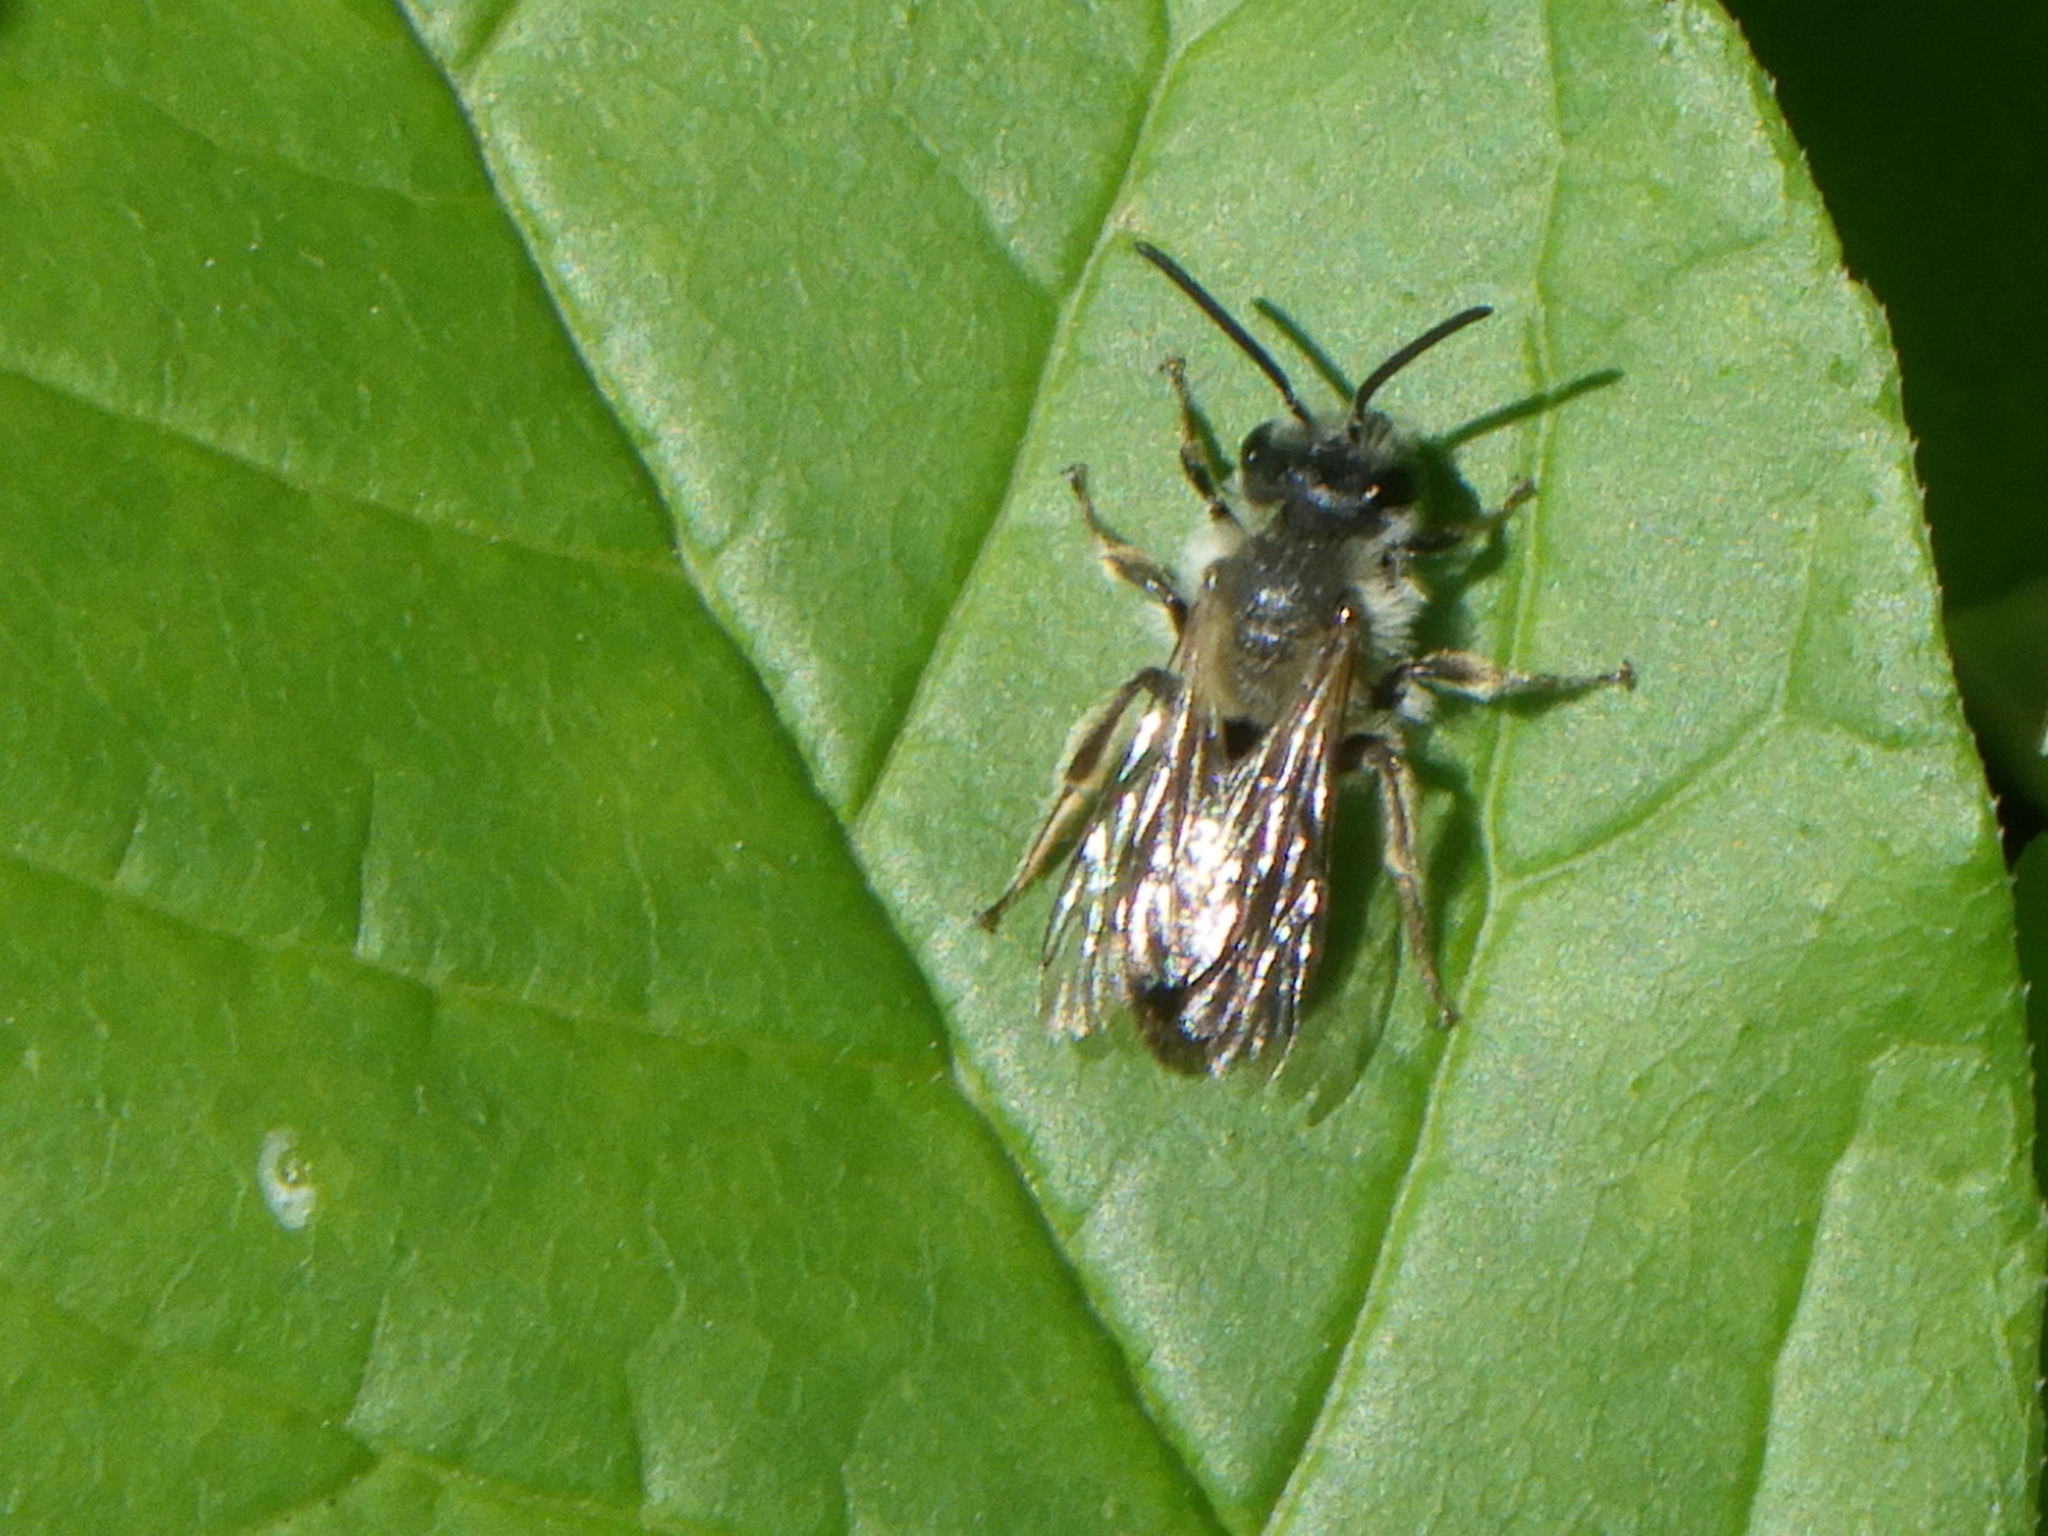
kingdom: Animalia
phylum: Arthropoda
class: Insecta
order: Hymenoptera
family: Andrenidae
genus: Andrena
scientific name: Andrena
